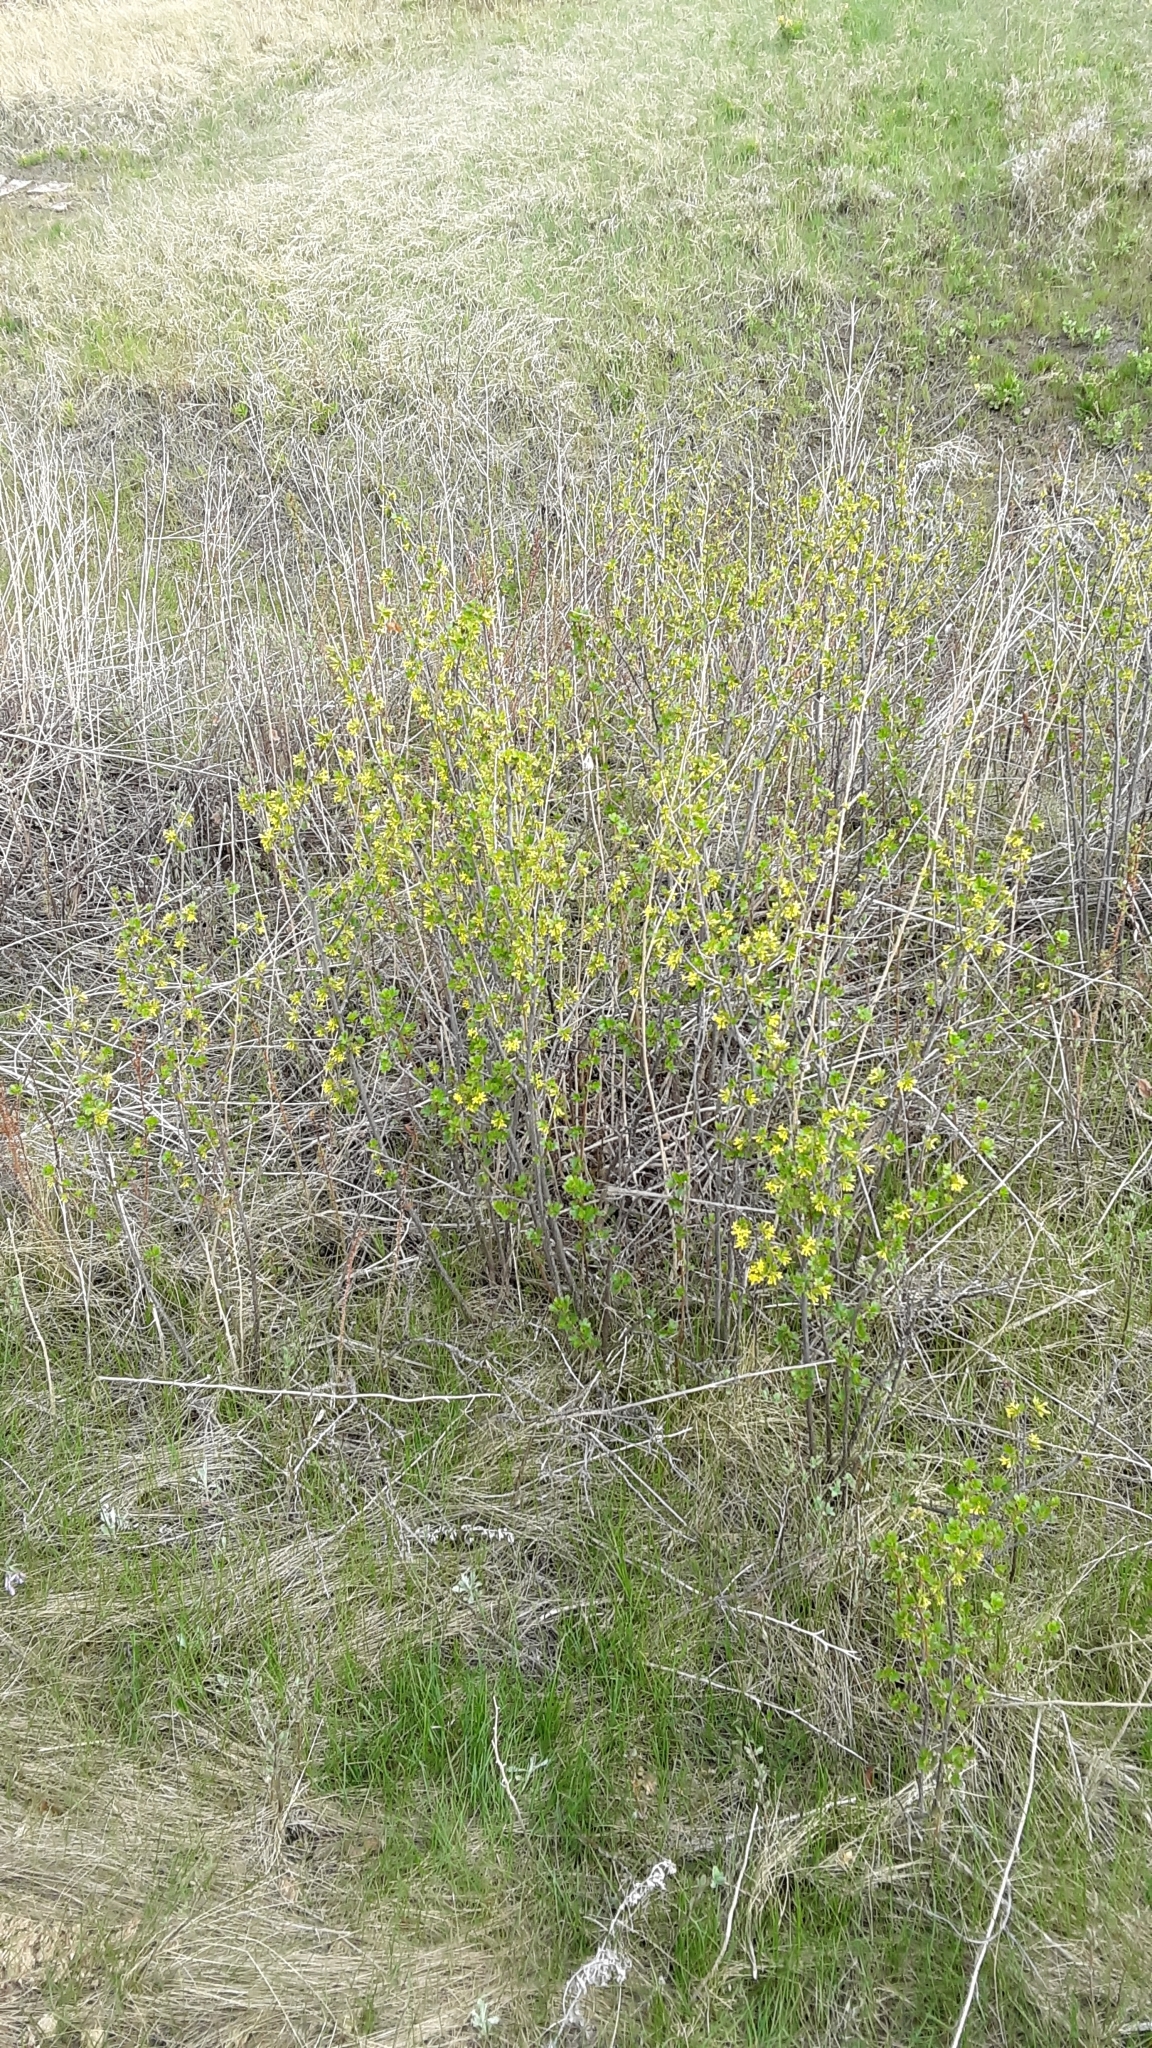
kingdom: Plantae
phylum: Tracheophyta
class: Magnoliopsida
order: Saxifragales
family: Grossulariaceae
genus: Ribes
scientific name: Ribes aureum
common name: Golden currant
